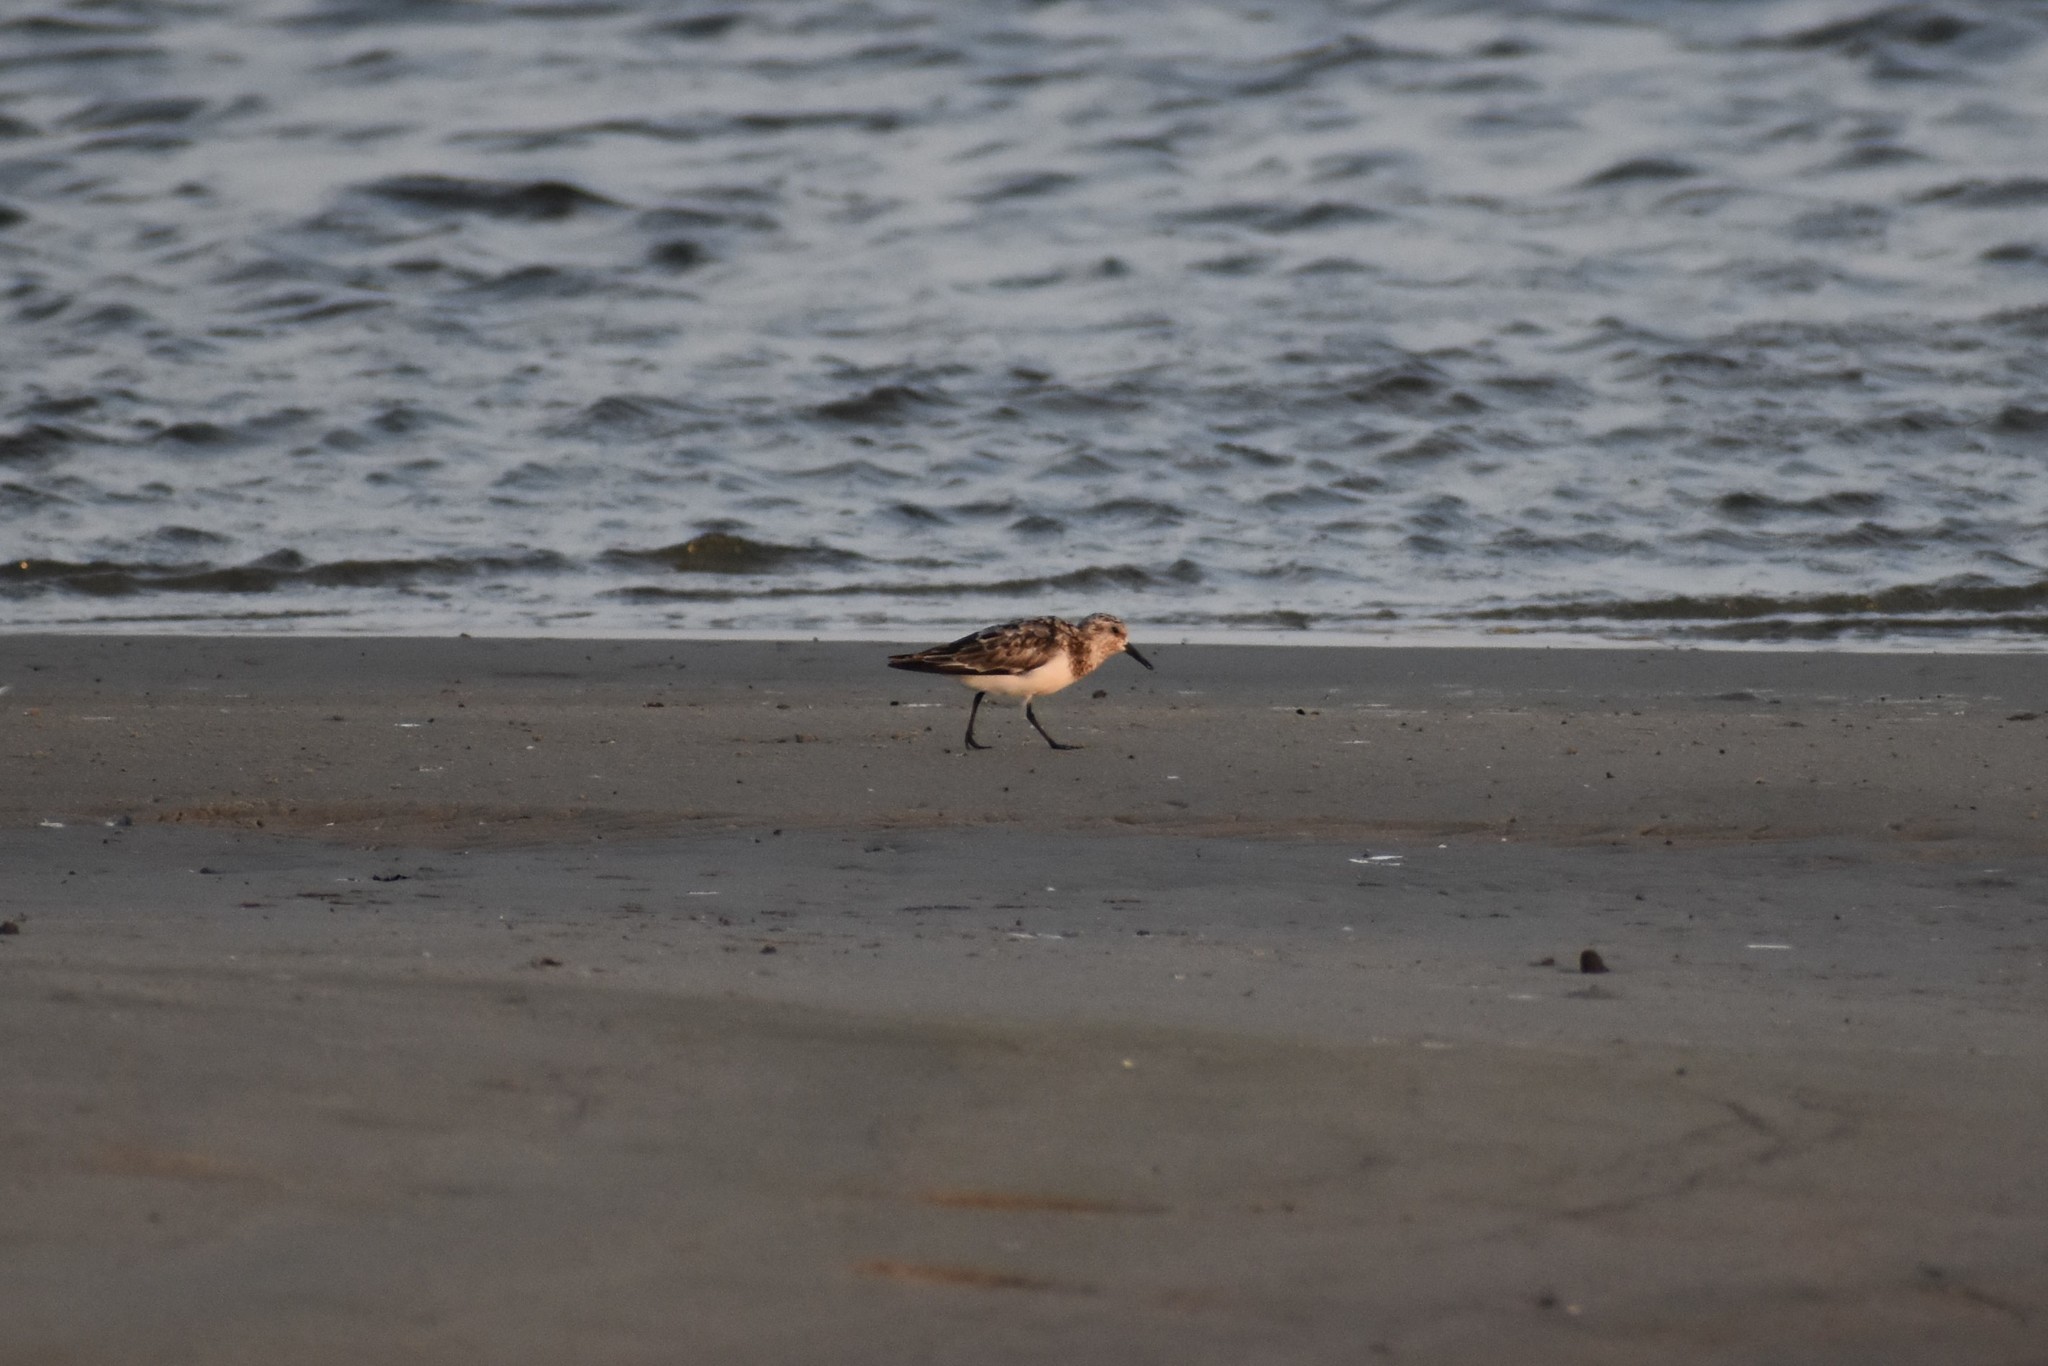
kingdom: Animalia
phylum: Chordata
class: Aves
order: Charadriiformes
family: Scolopacidae
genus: Calidris
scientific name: Calidris alba
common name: Sanderling
